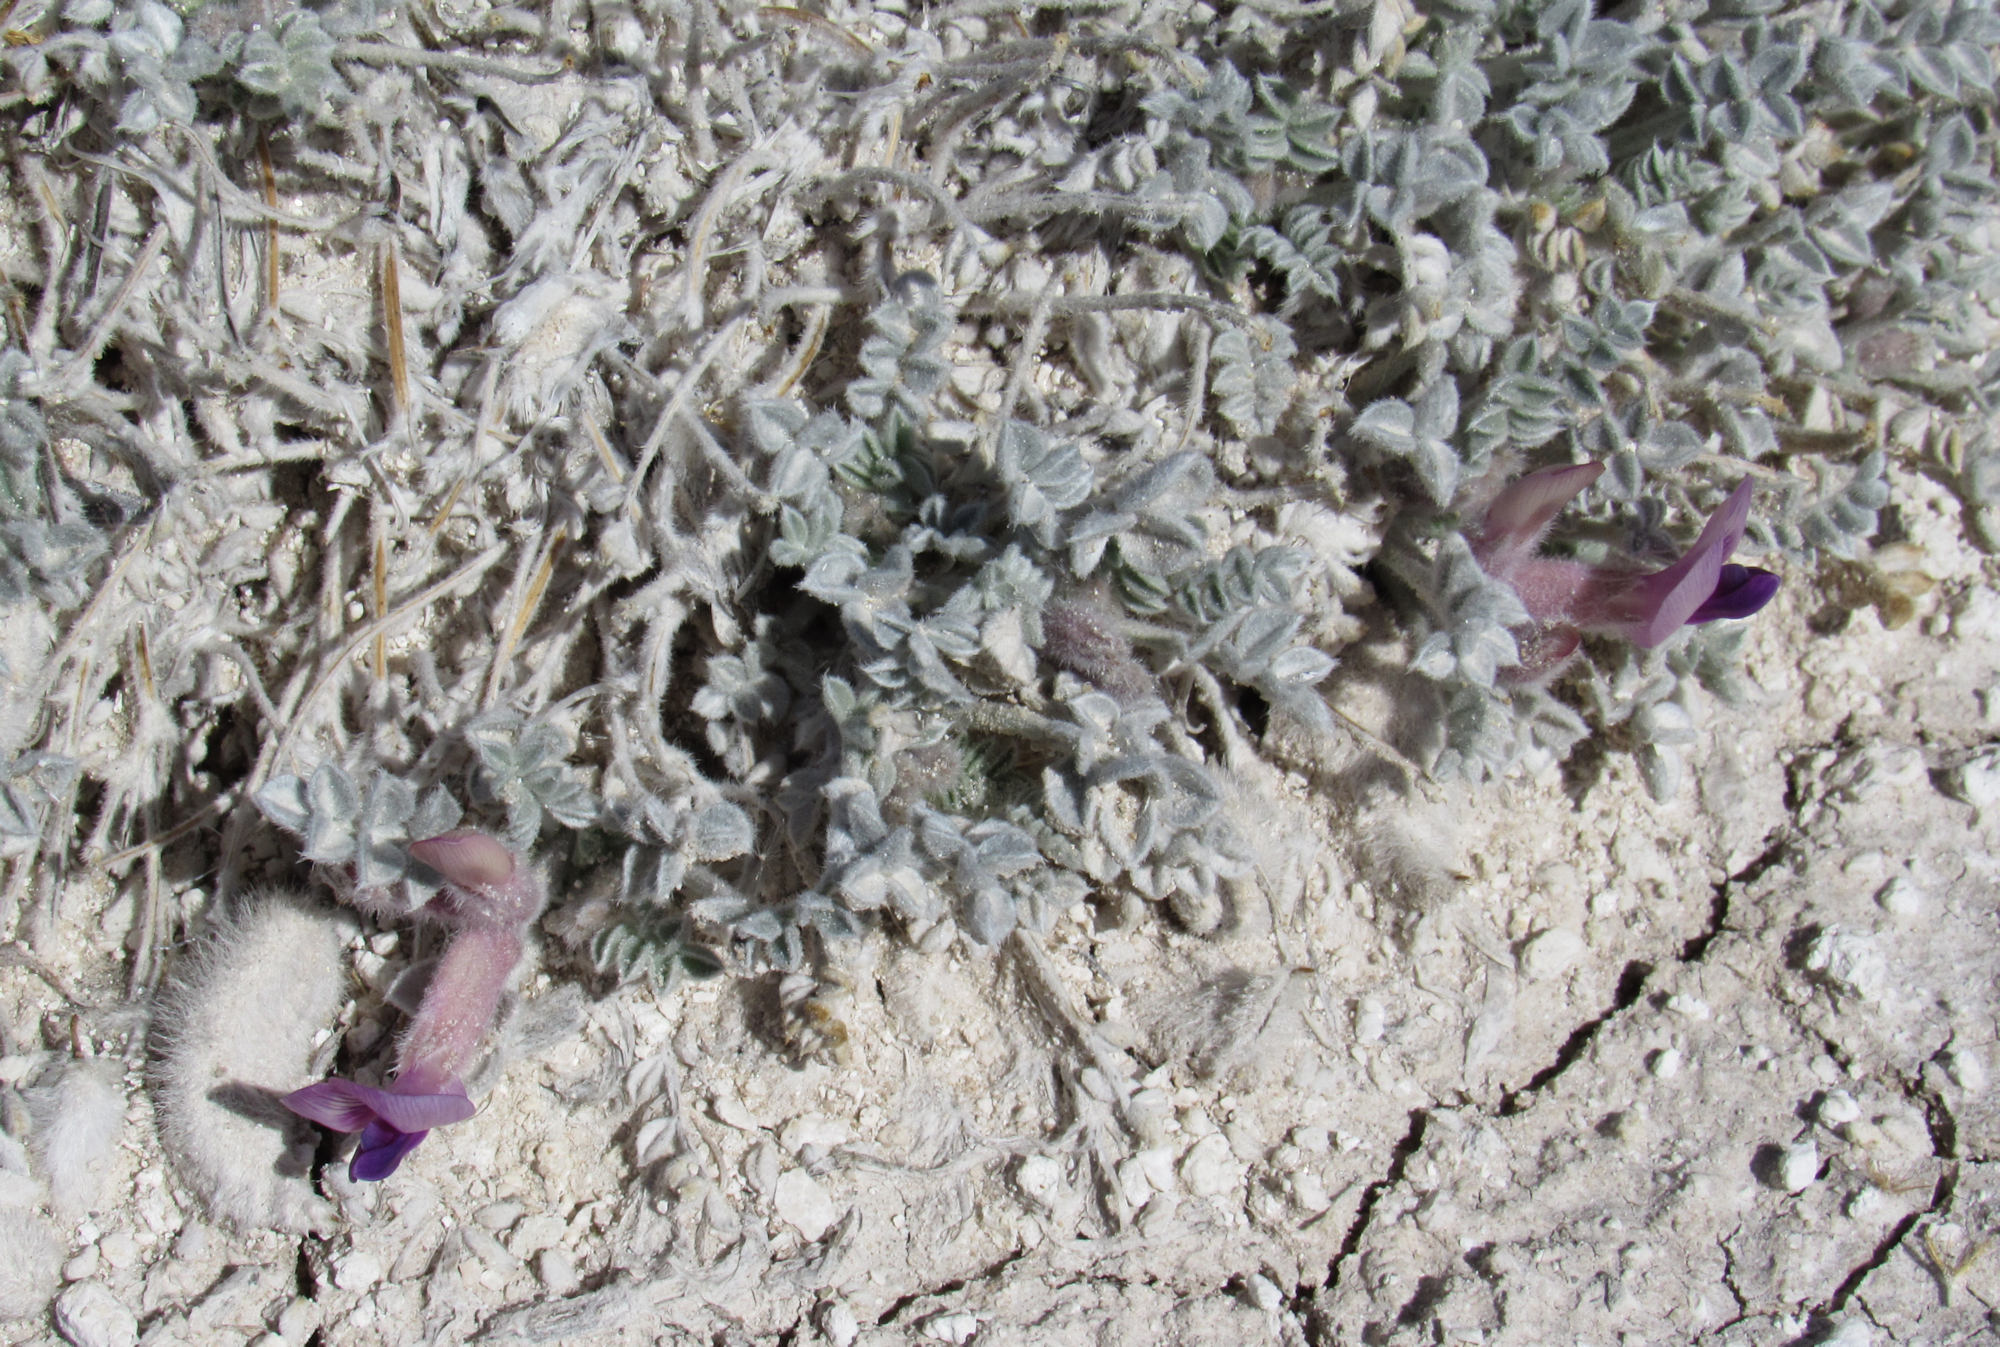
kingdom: Plantae
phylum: Tracheophyta
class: Magnoliopsida
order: Fabales
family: Fabaceae
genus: Astragalus
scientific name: Astragalus phoenix
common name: Ash meadows milk-vetch
